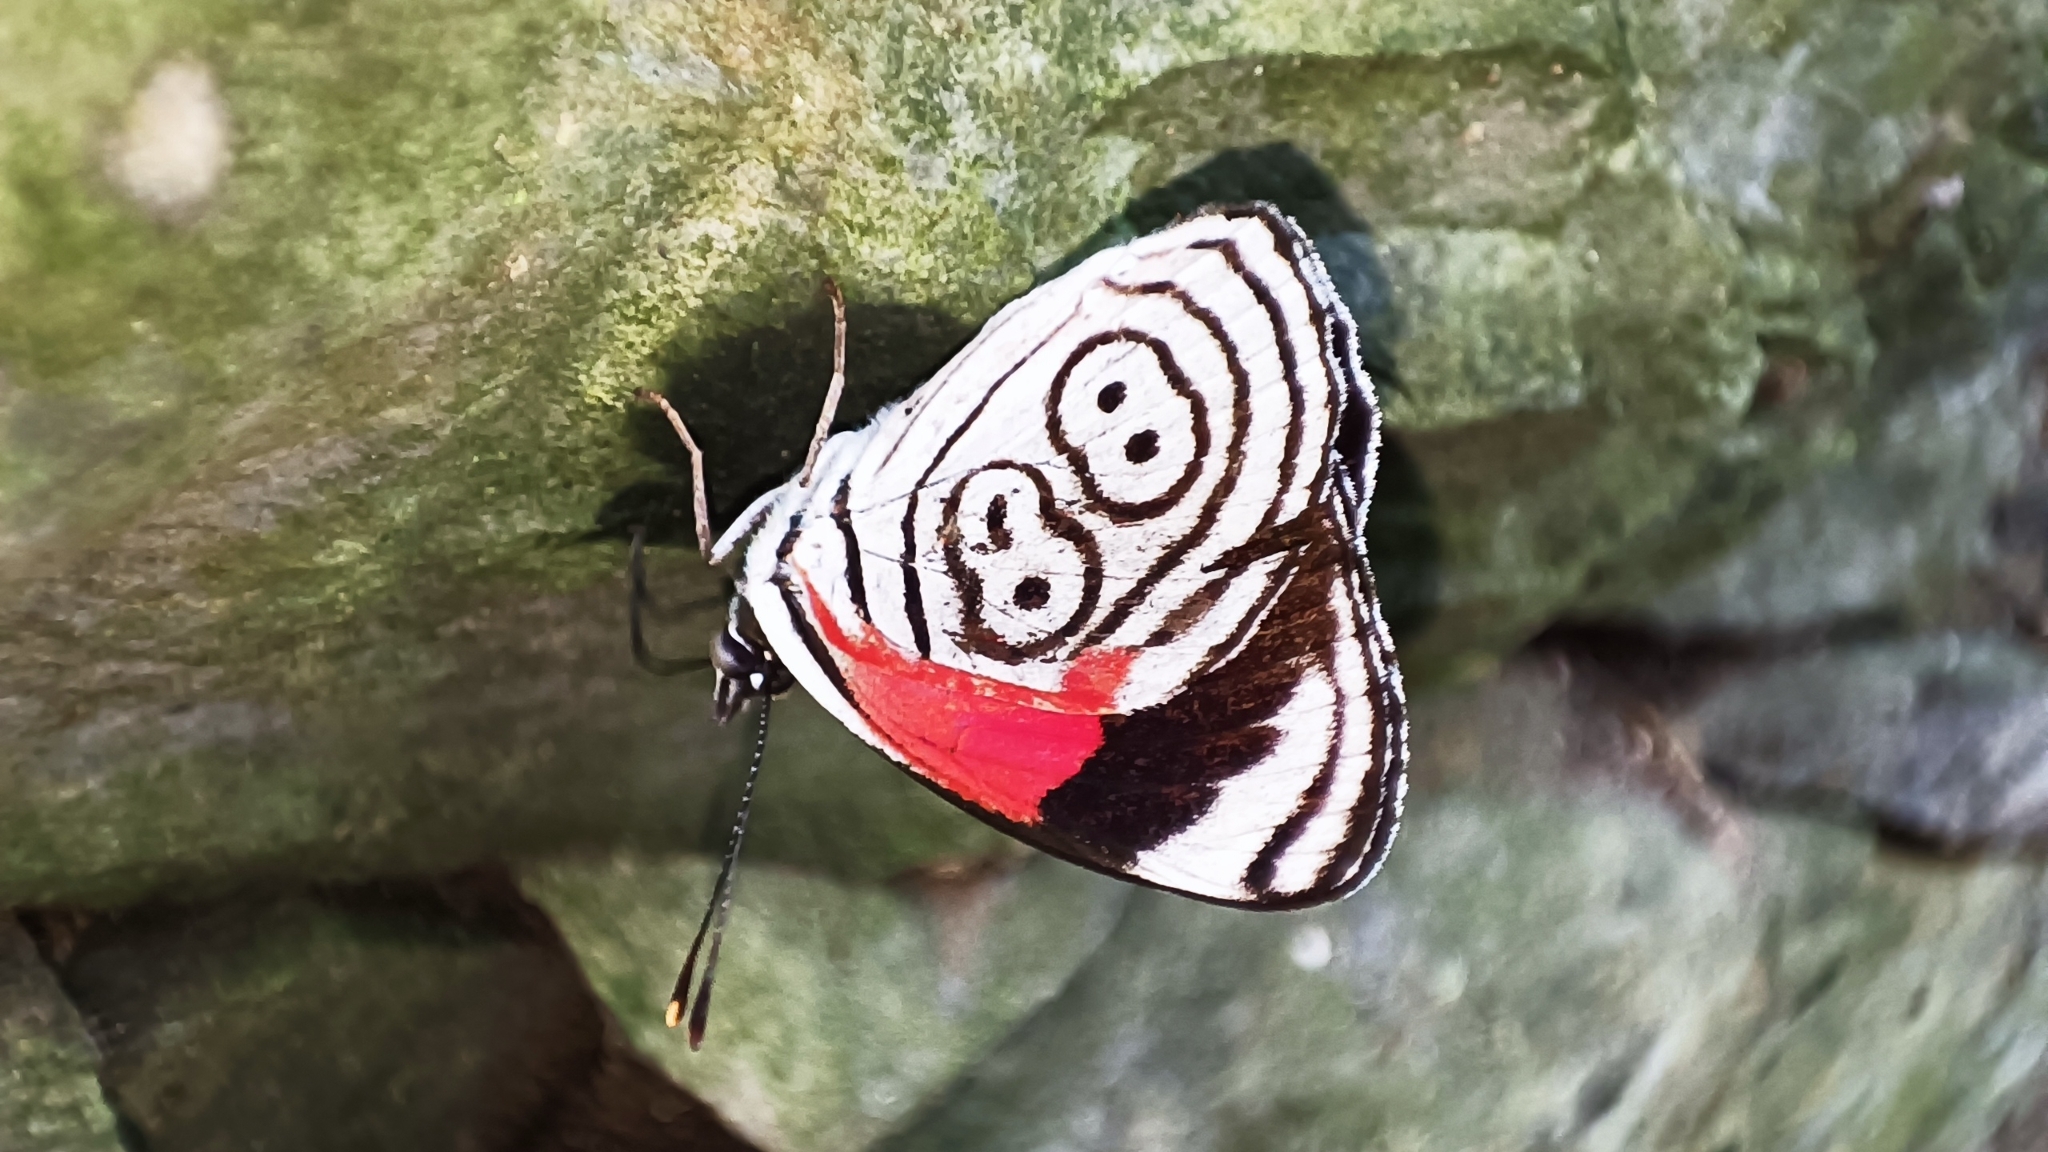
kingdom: Animalia
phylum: Arthropoda
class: Insecta
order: Lepidoptera
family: Nymphalidae
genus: Diaethria
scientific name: Diaethria anna
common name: Anna’s eighty-eight
